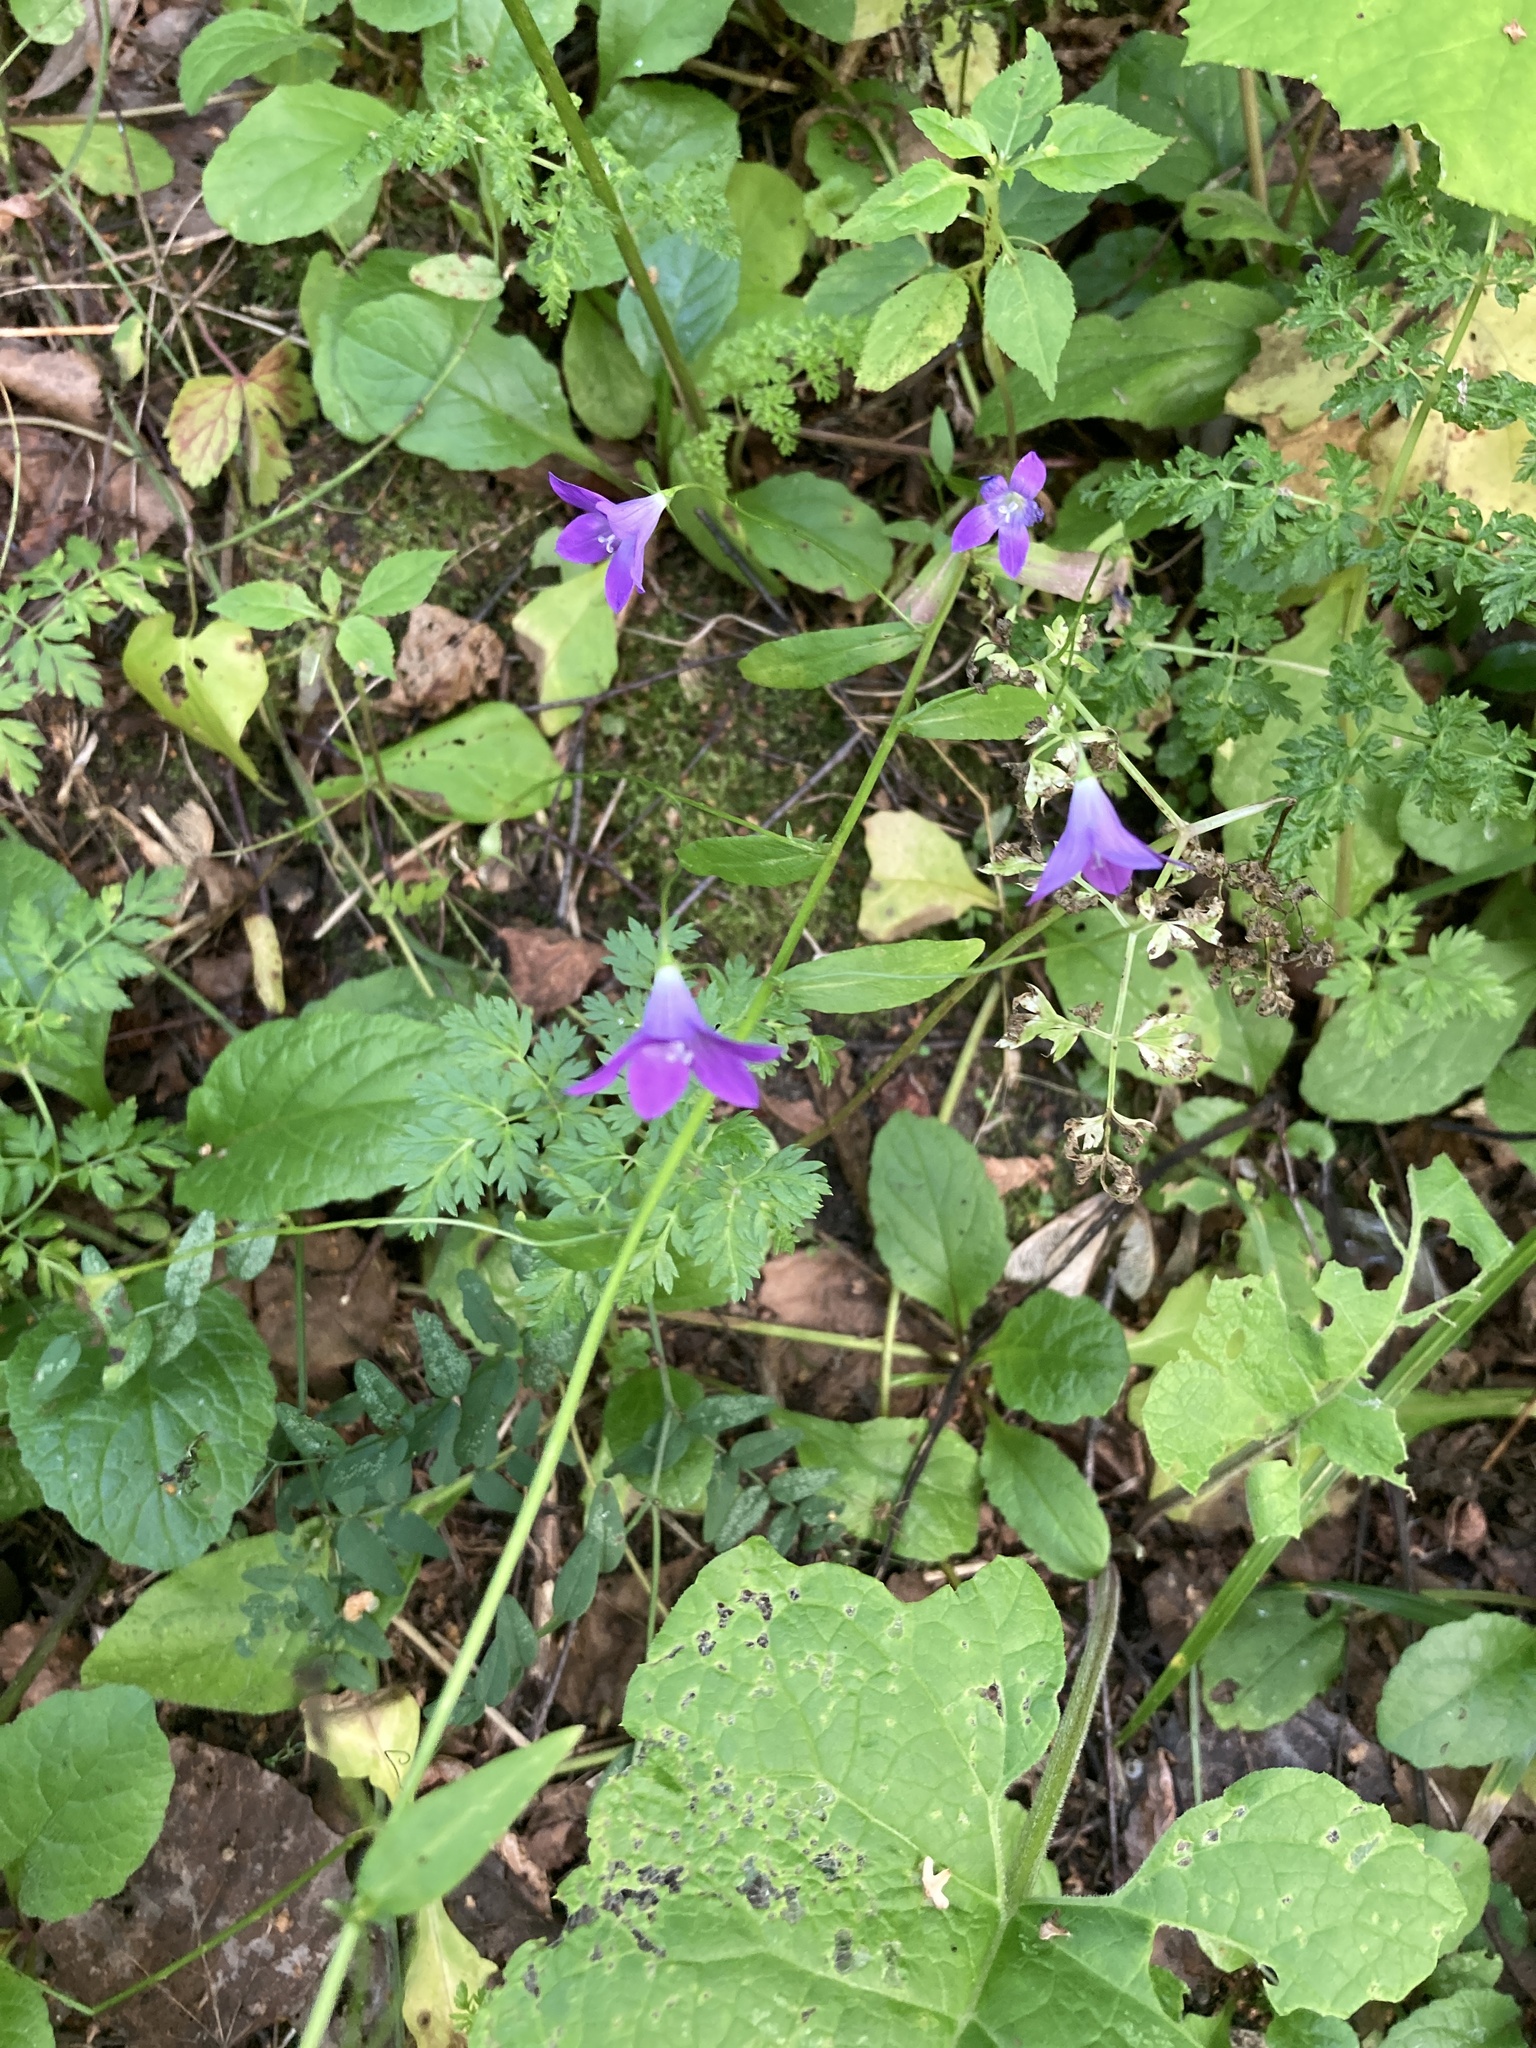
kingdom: Plantae
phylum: Tracheophyta
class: Magnoliopsida
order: Asterales
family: Campanulaceae
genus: Campanula
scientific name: Campanula patula
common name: Spreading bellflower
